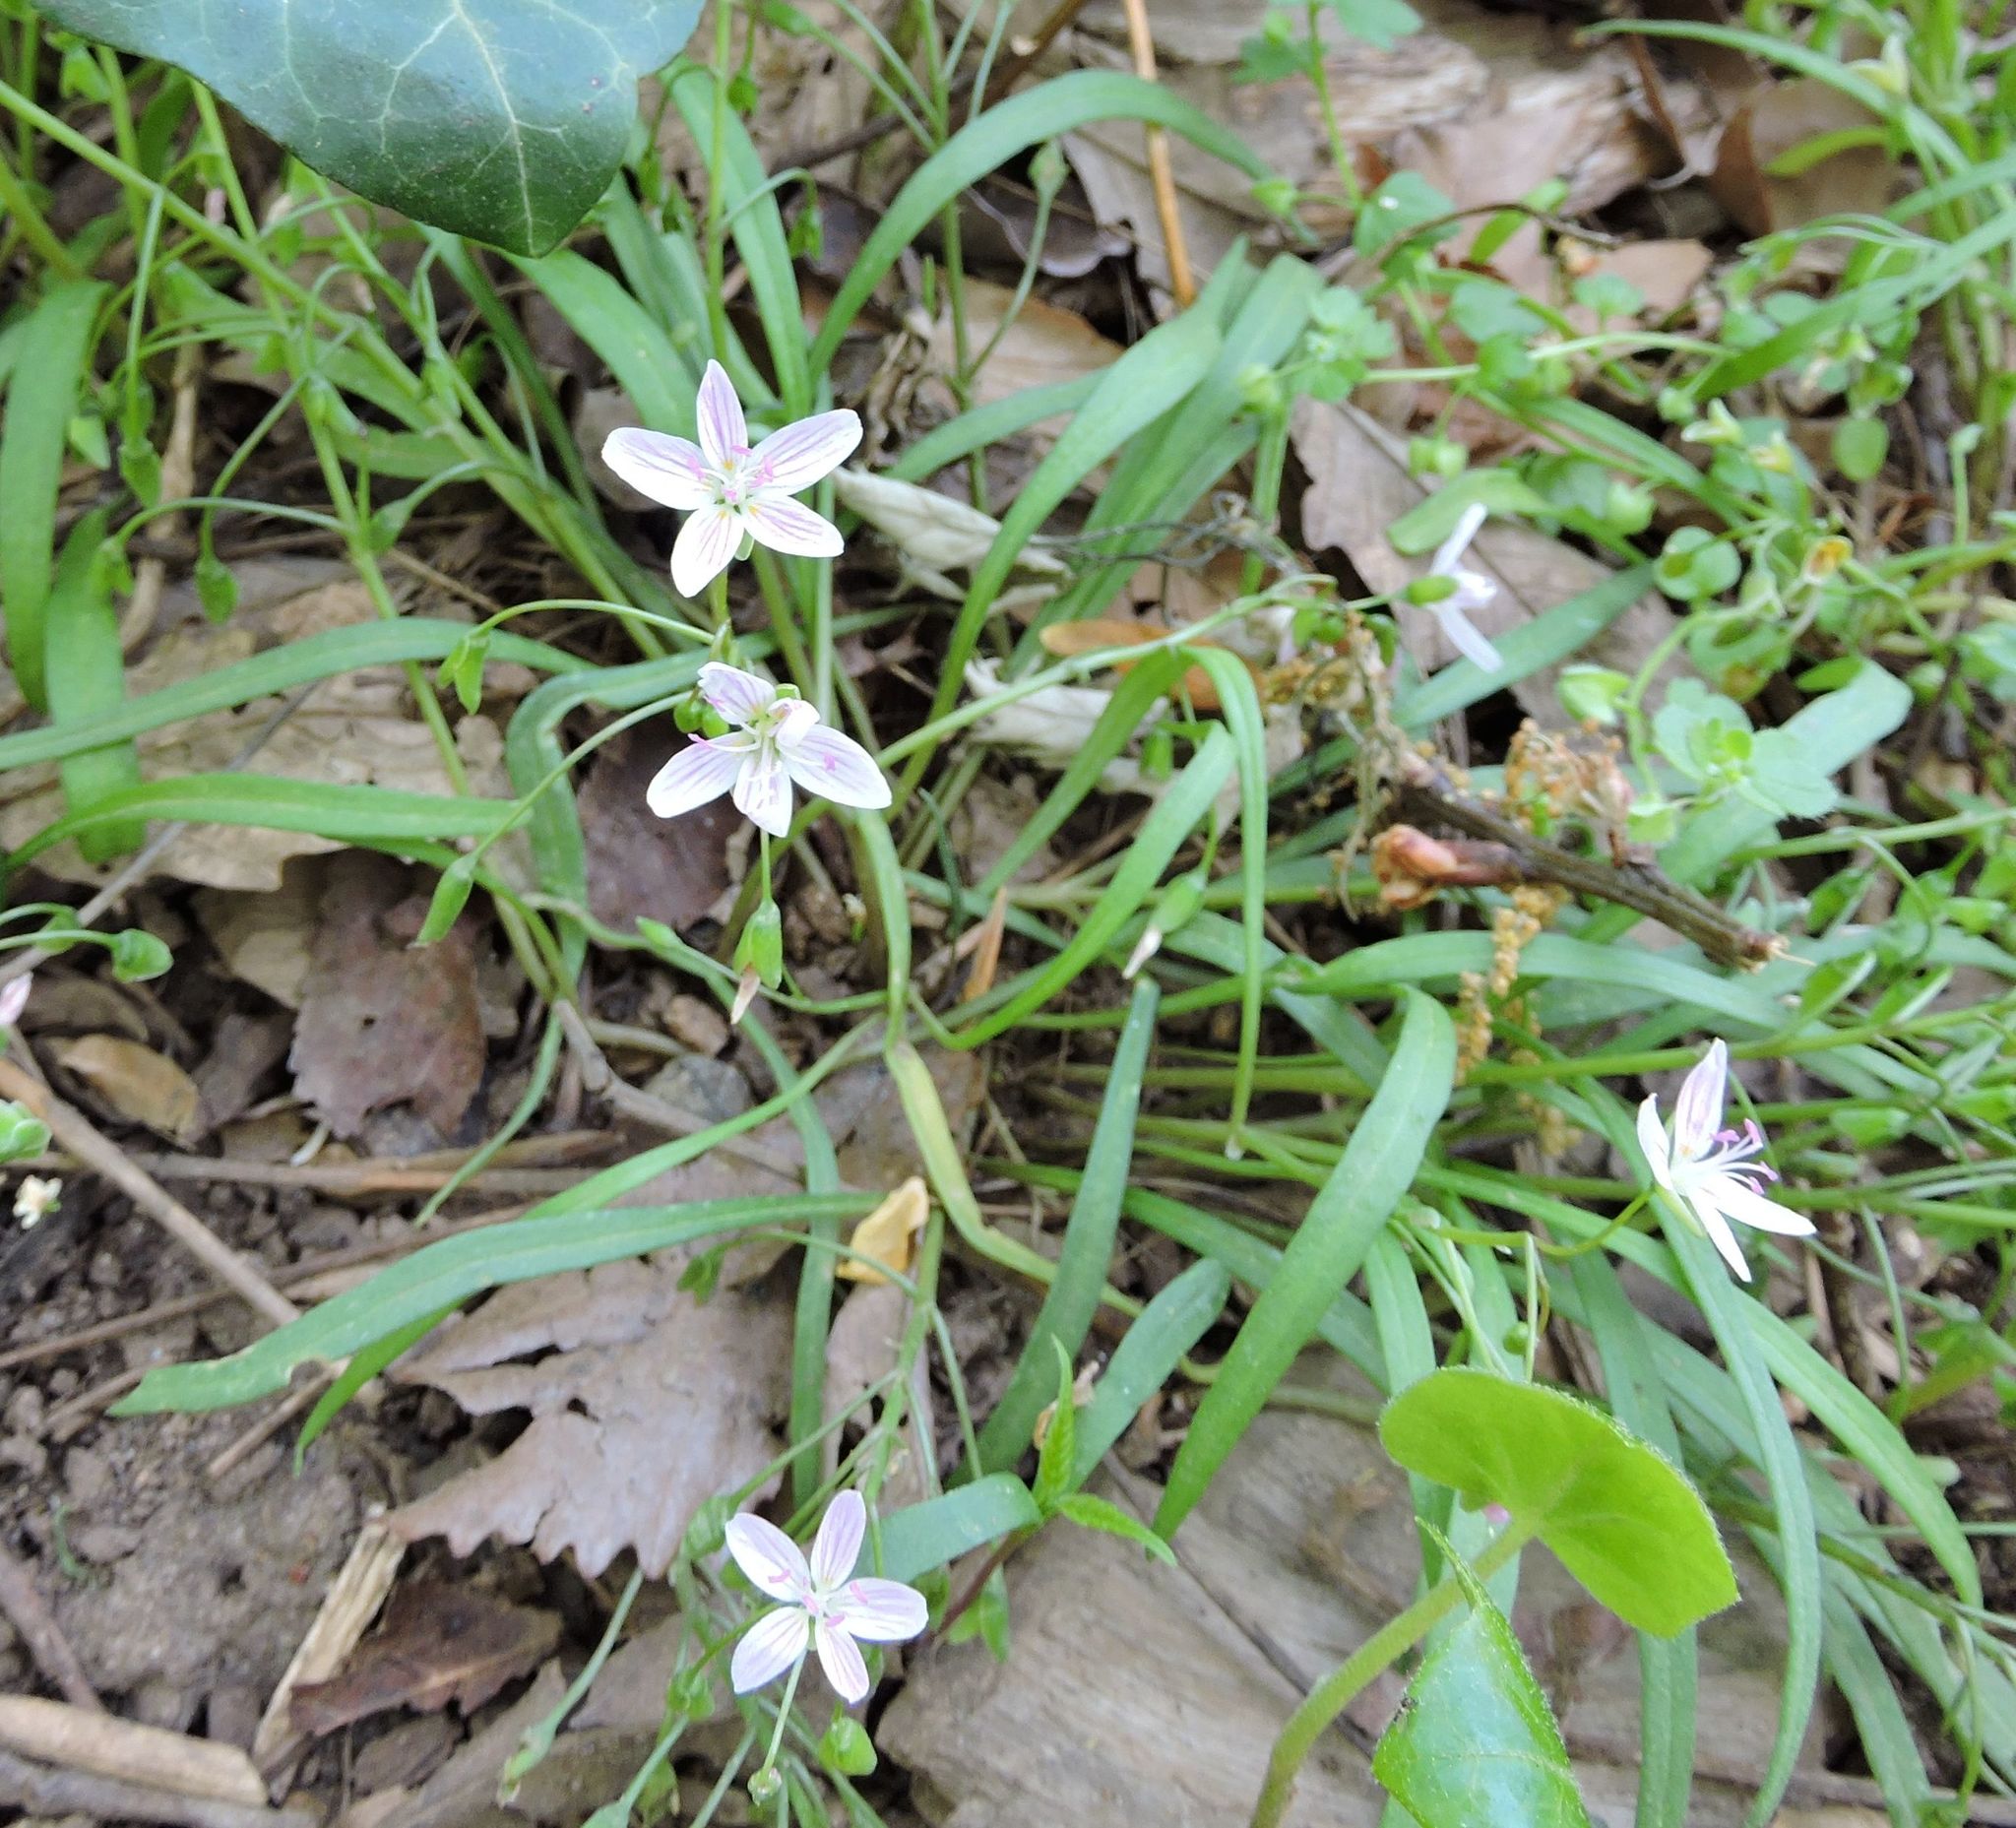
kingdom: Plantae
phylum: Tracheophyta
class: Magnoliopsida
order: Caryophyllales
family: Montiaceae
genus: Claytonia
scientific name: Claytonia virginica
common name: Virginia springbeauty
